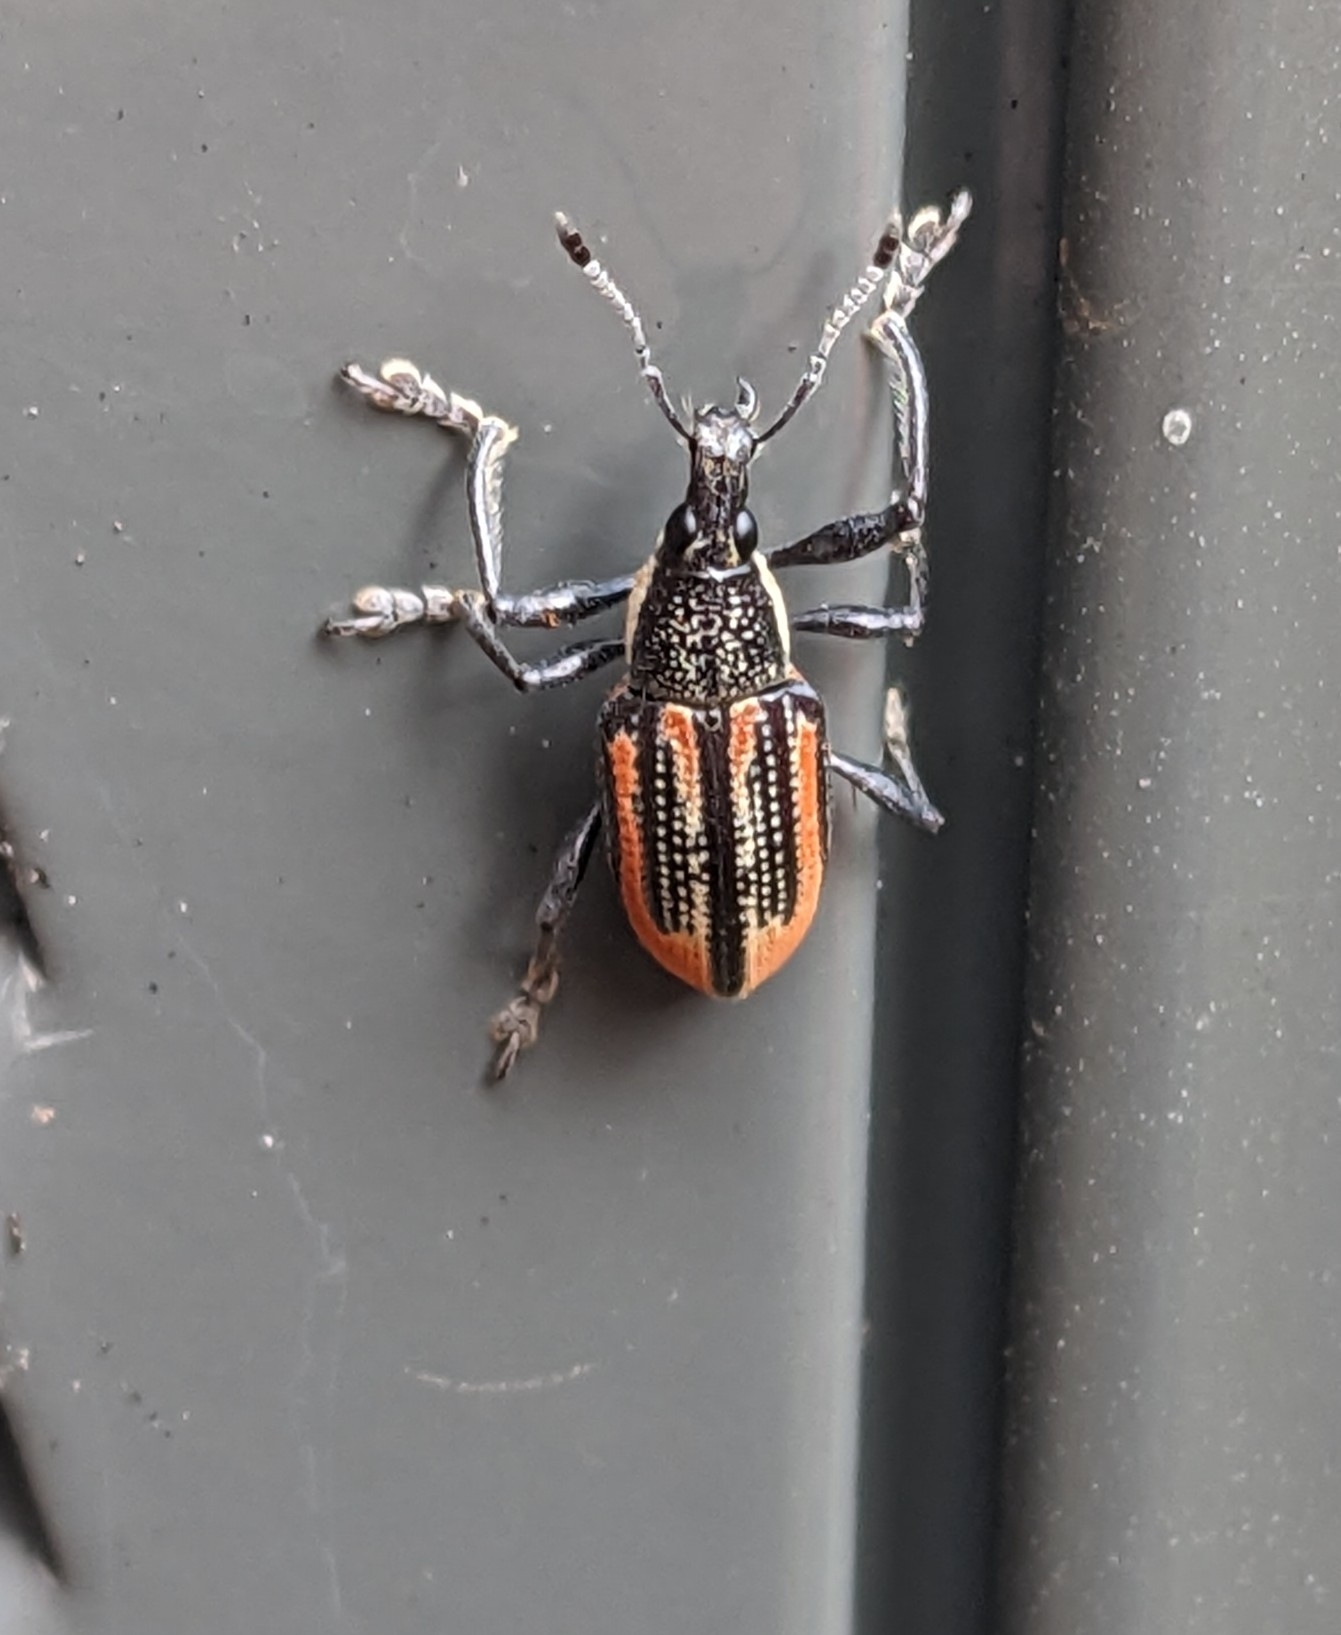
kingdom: Animalia
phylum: Arthropoda
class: Insecta
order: Coleoptera
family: Curculionidae
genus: Diaprepes
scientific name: Diaprepes abbreviatus
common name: Root weevil
